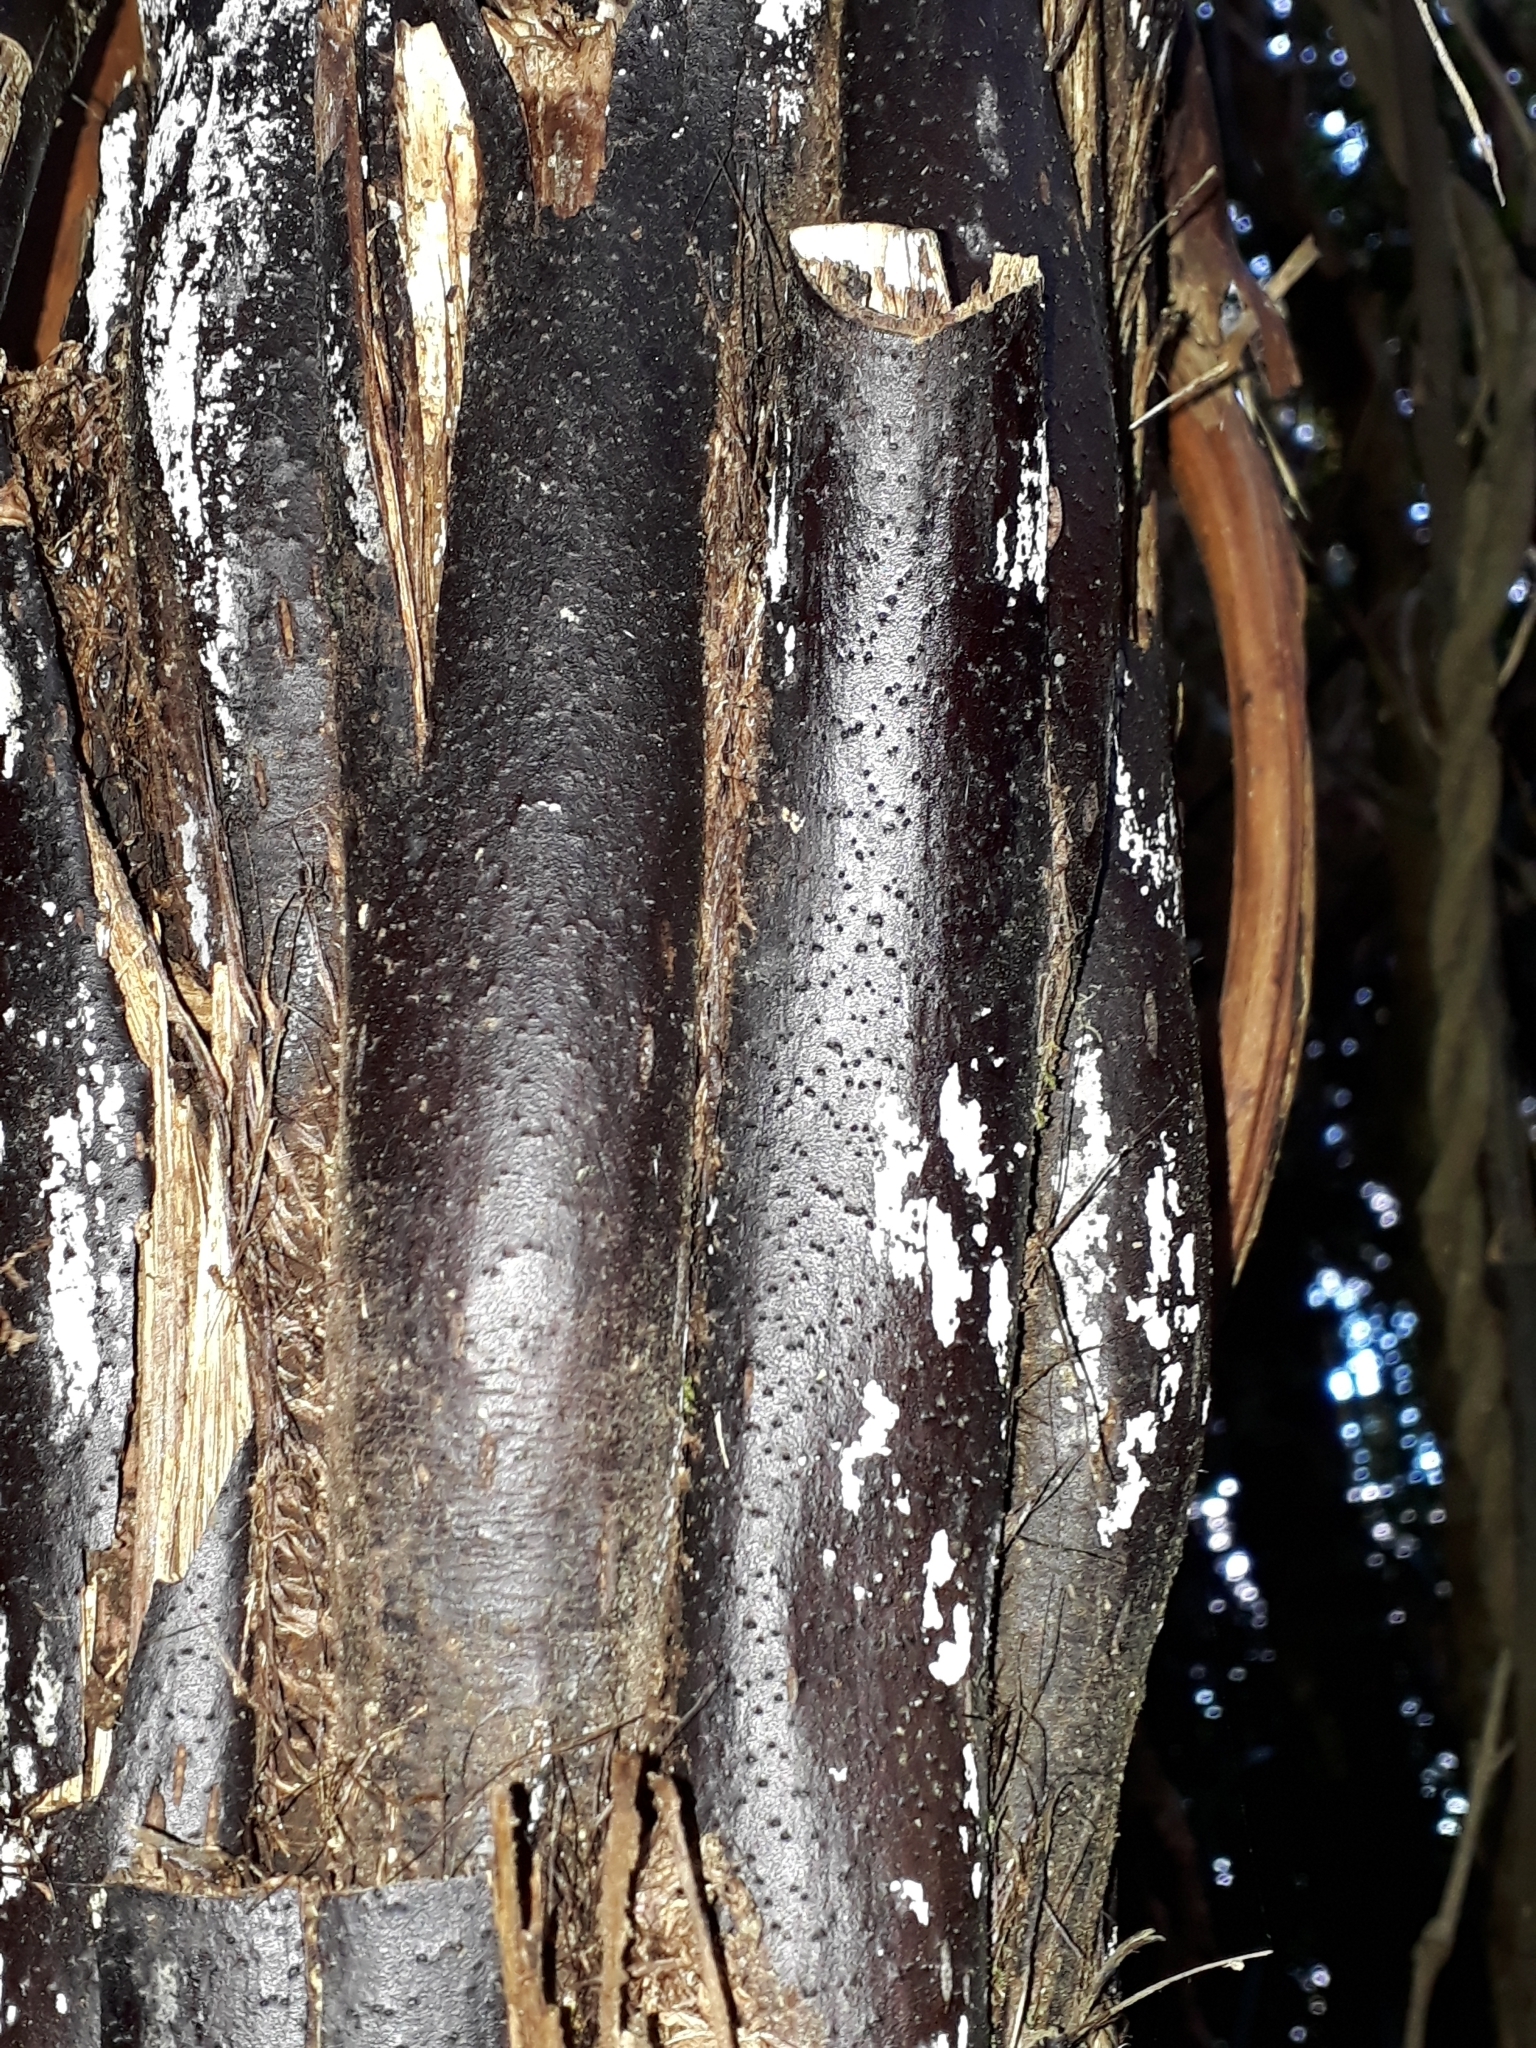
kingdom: Plantae
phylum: Tracheophyta
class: Polypodiopsida
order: Cyatheales
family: Cyatheaceae
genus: Cyathea
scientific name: Cyathea cunninghamii
